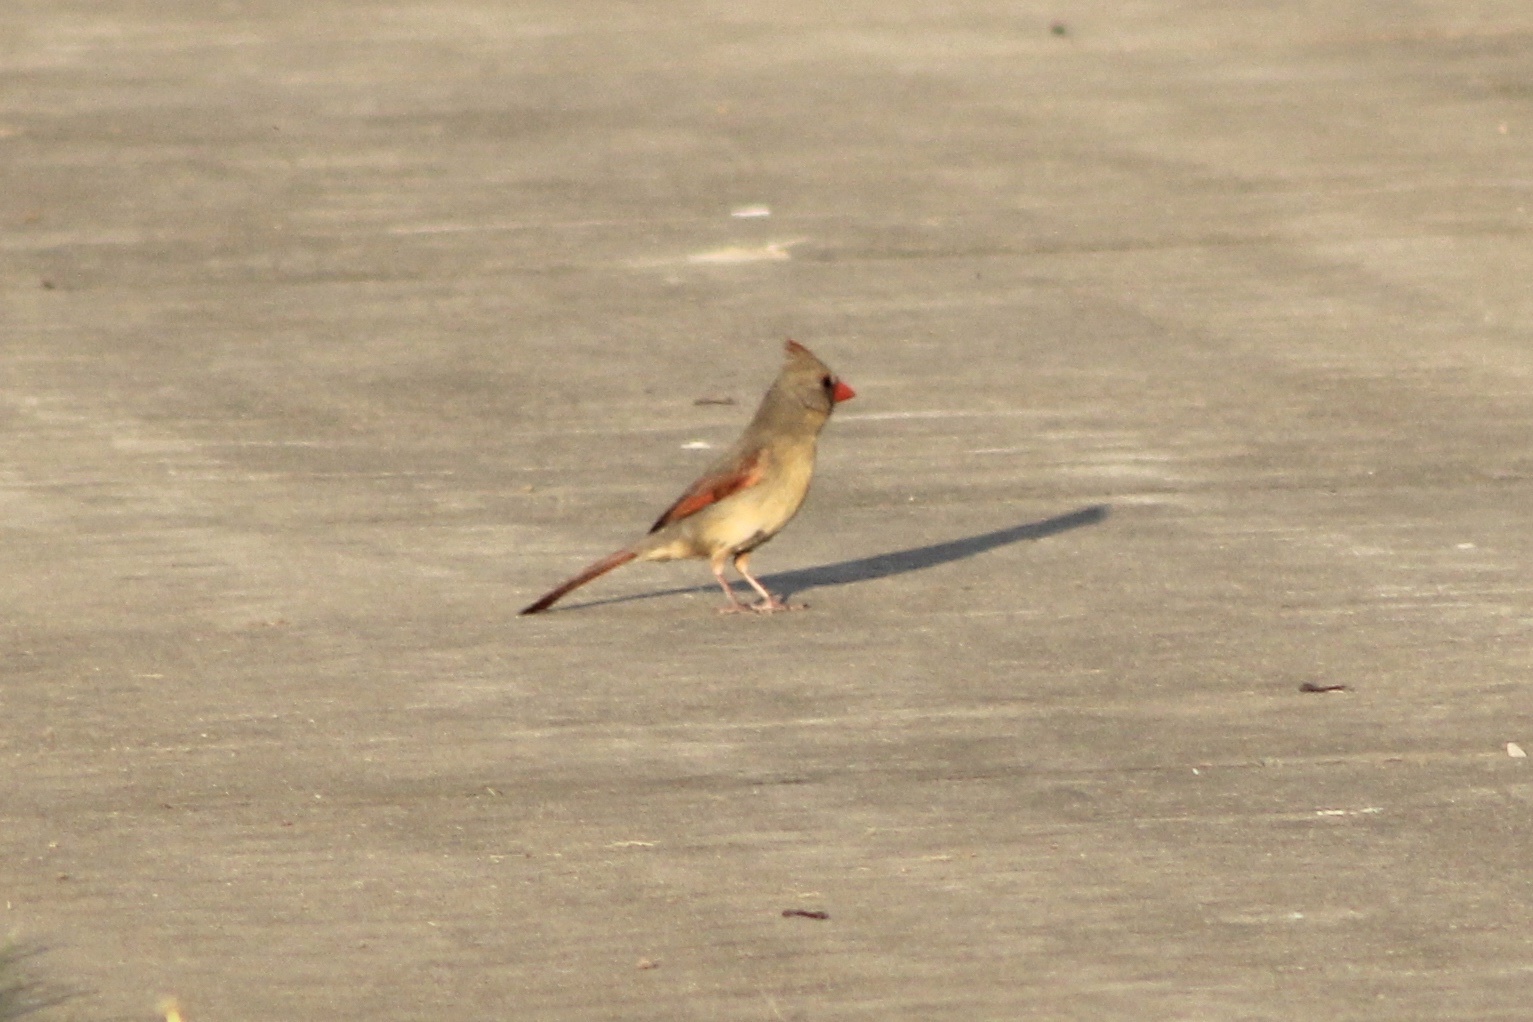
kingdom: Animalia
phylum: Chordata
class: Aves
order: Passeriformes
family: Cardinalidae
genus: Cardinalis
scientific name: Cardinalis cardinalis
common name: Northern cardinal
